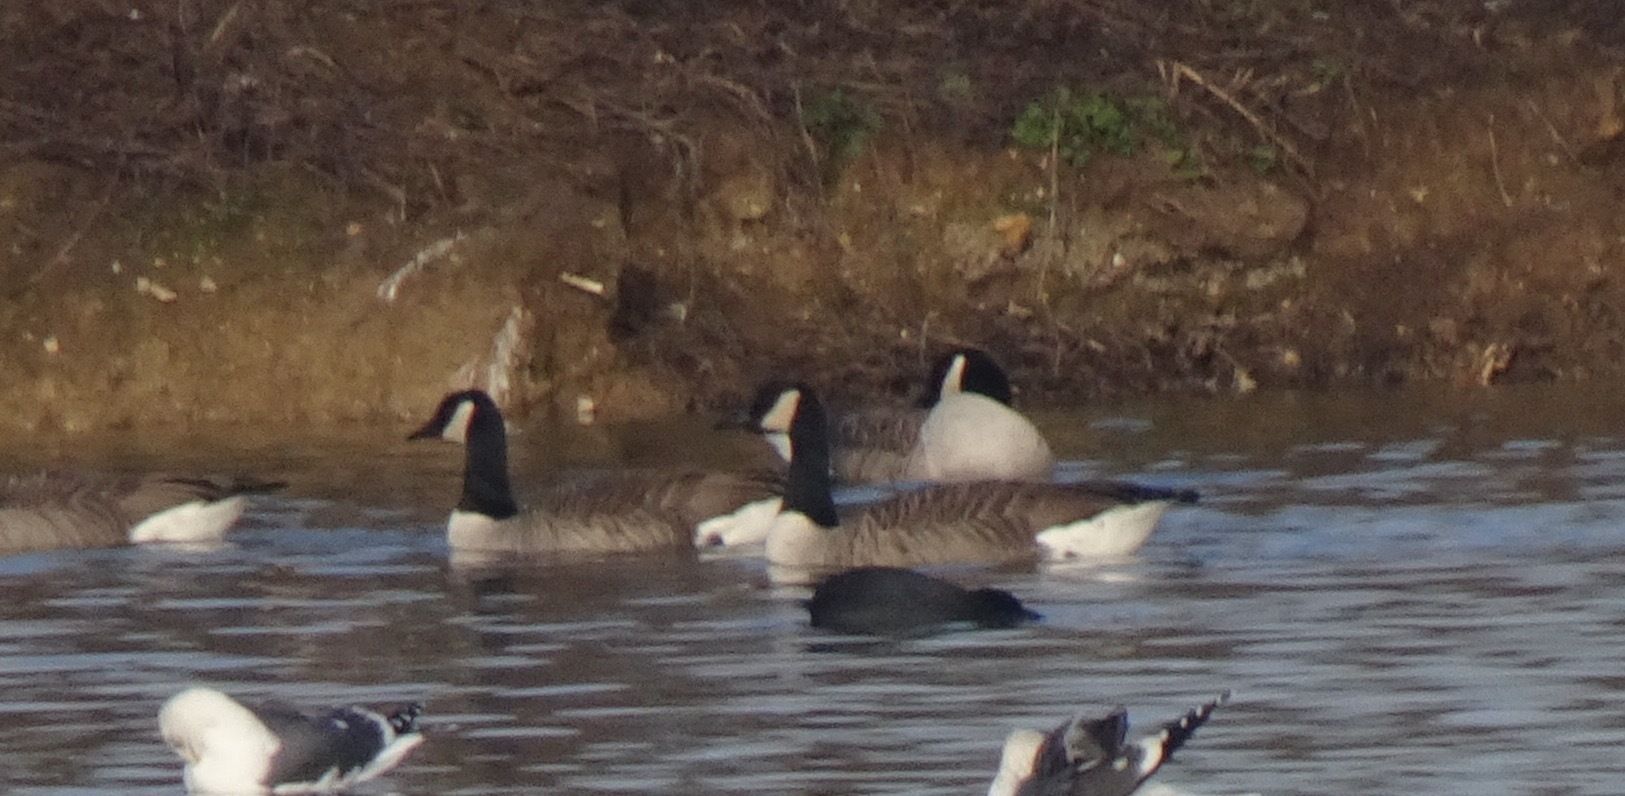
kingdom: Animalia
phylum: Chordata
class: Aves
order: Anseriformes
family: Anatidae
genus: Branta
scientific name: Branta canadensis
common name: Canada goose
